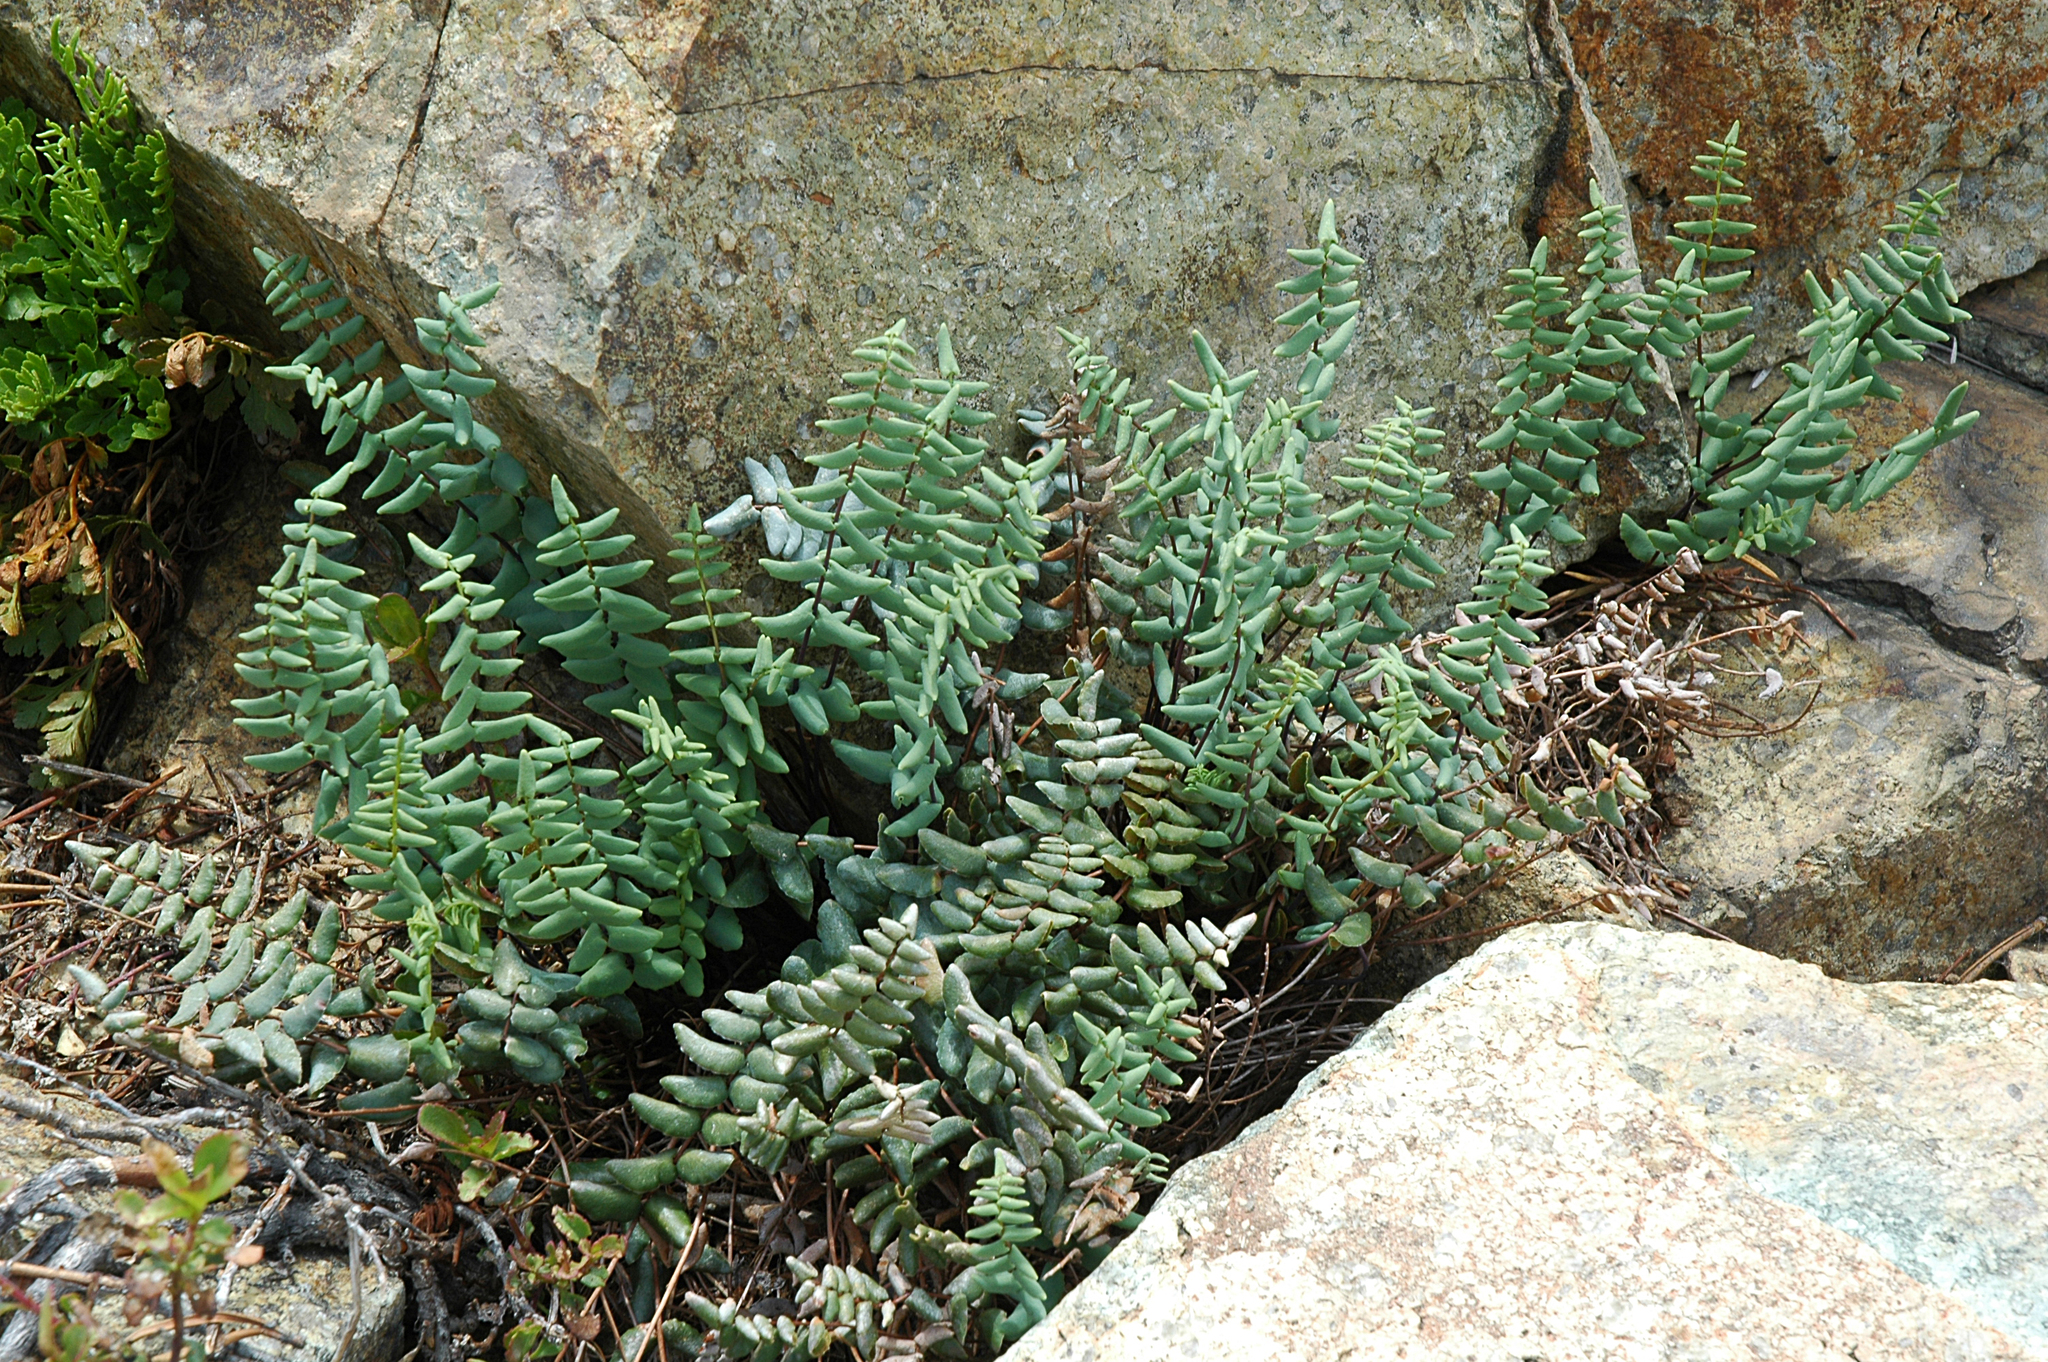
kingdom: Plantae
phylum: Tracheophyta
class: Polypodiopsida
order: Polypodiales
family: Pteridaceae
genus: Pellaea
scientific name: Pellaea bridgesii
